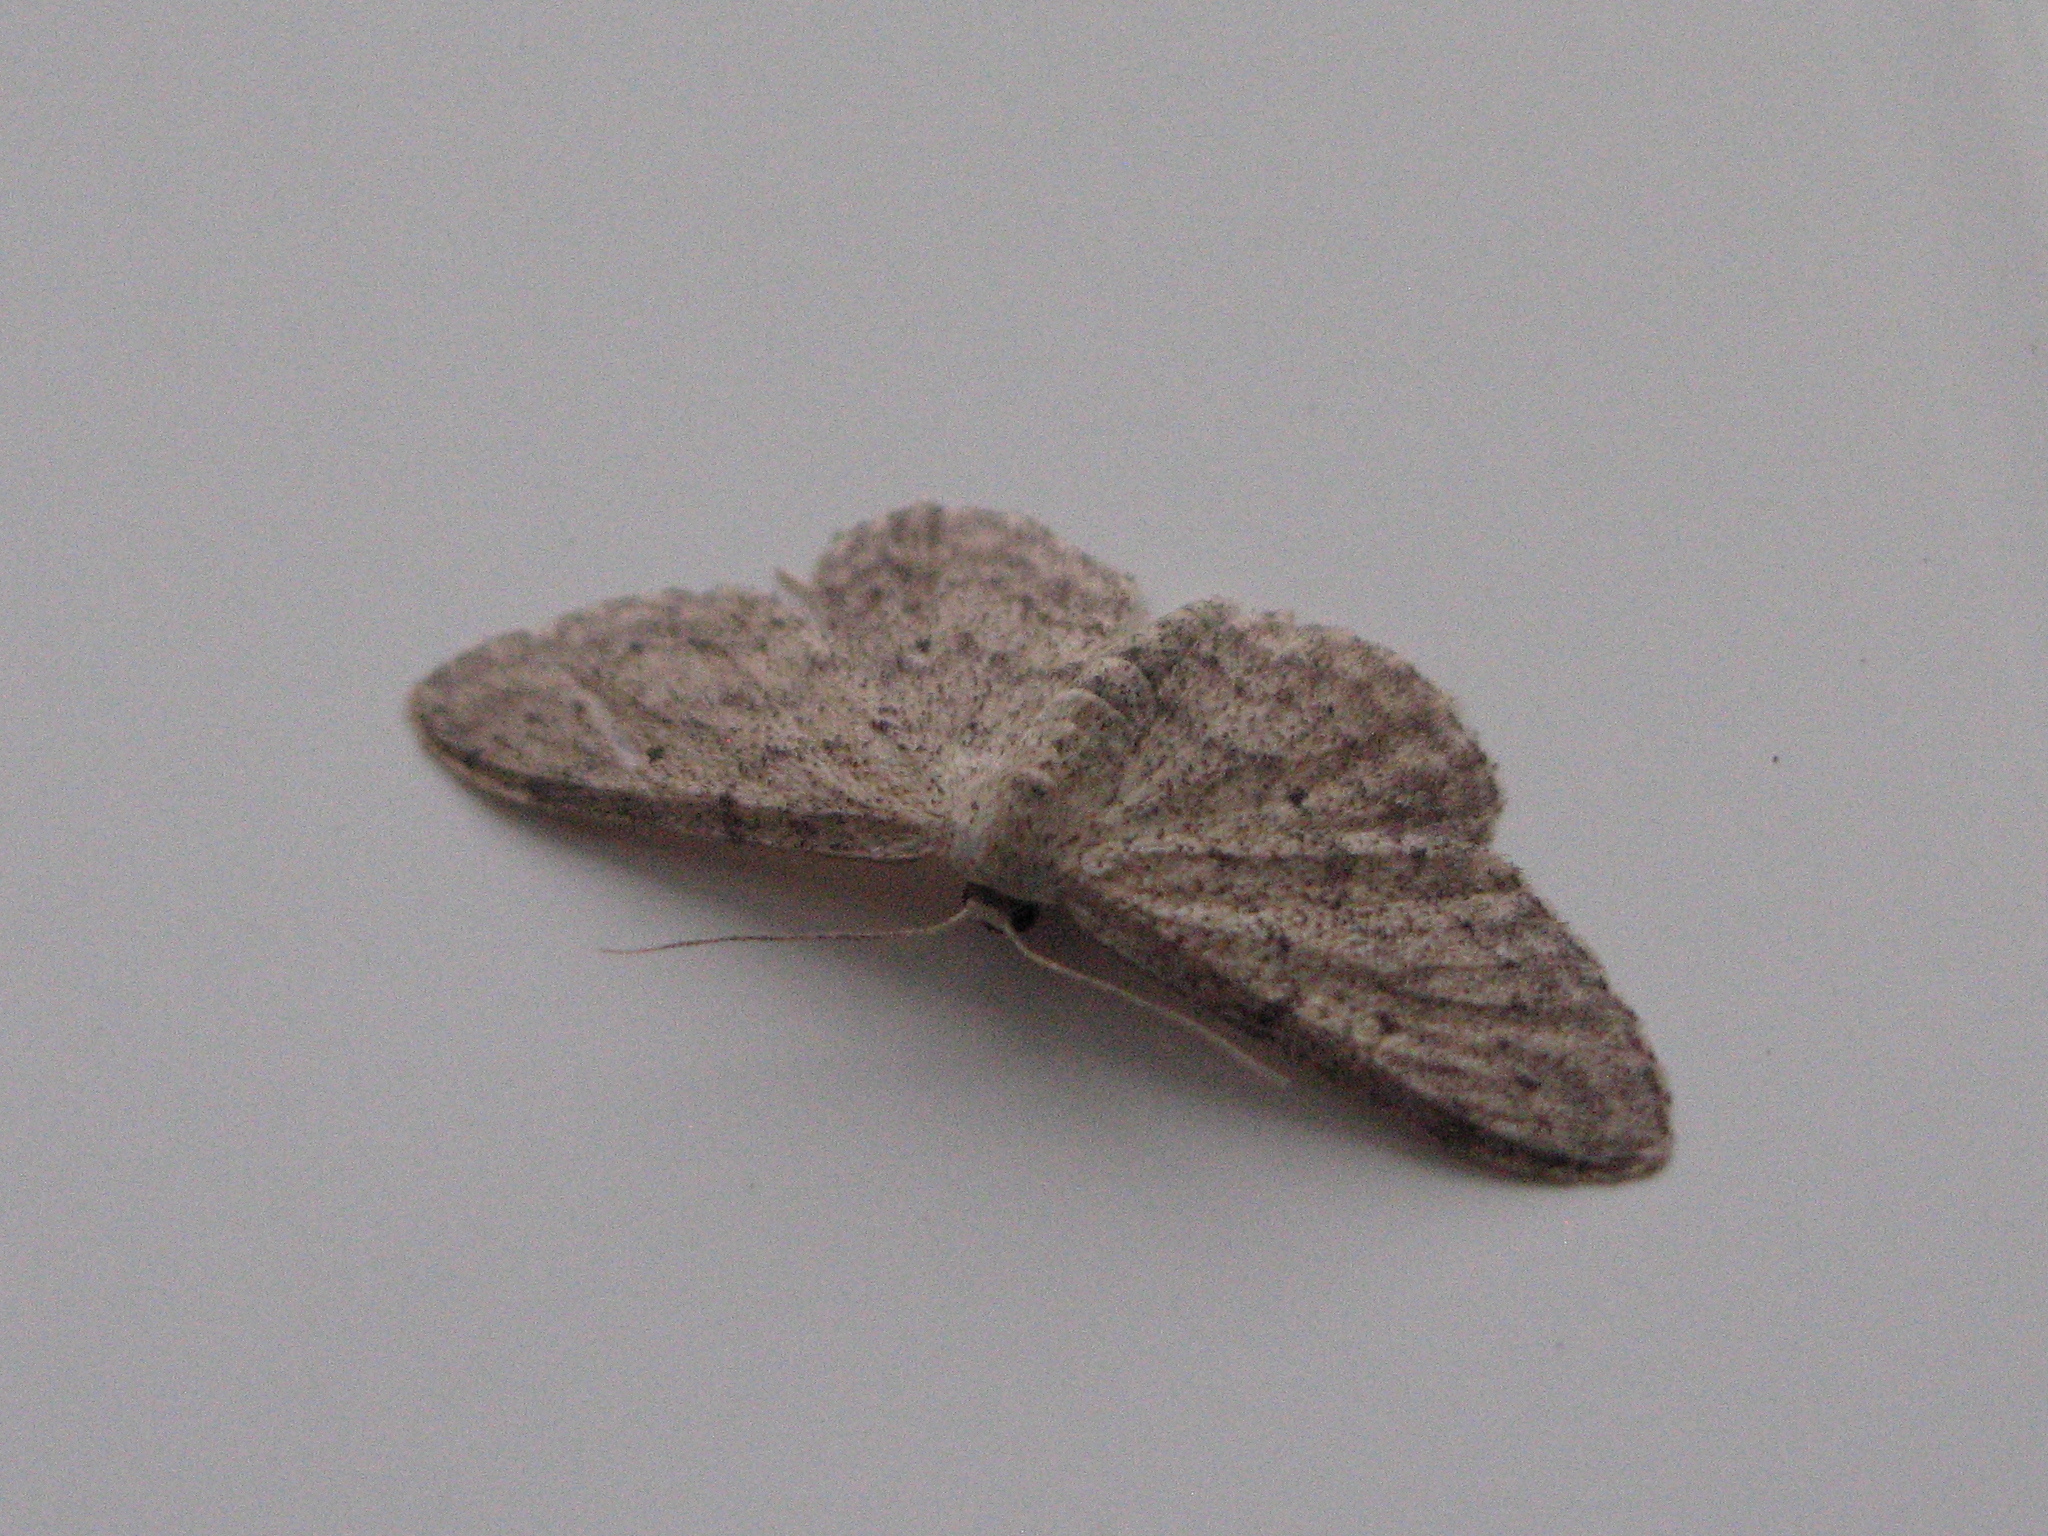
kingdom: Animalia
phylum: Arthropoda
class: Insecta
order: Lepidoptera
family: Geometridae
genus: Idaea
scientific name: Idaea seriata
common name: Small dusty wave
